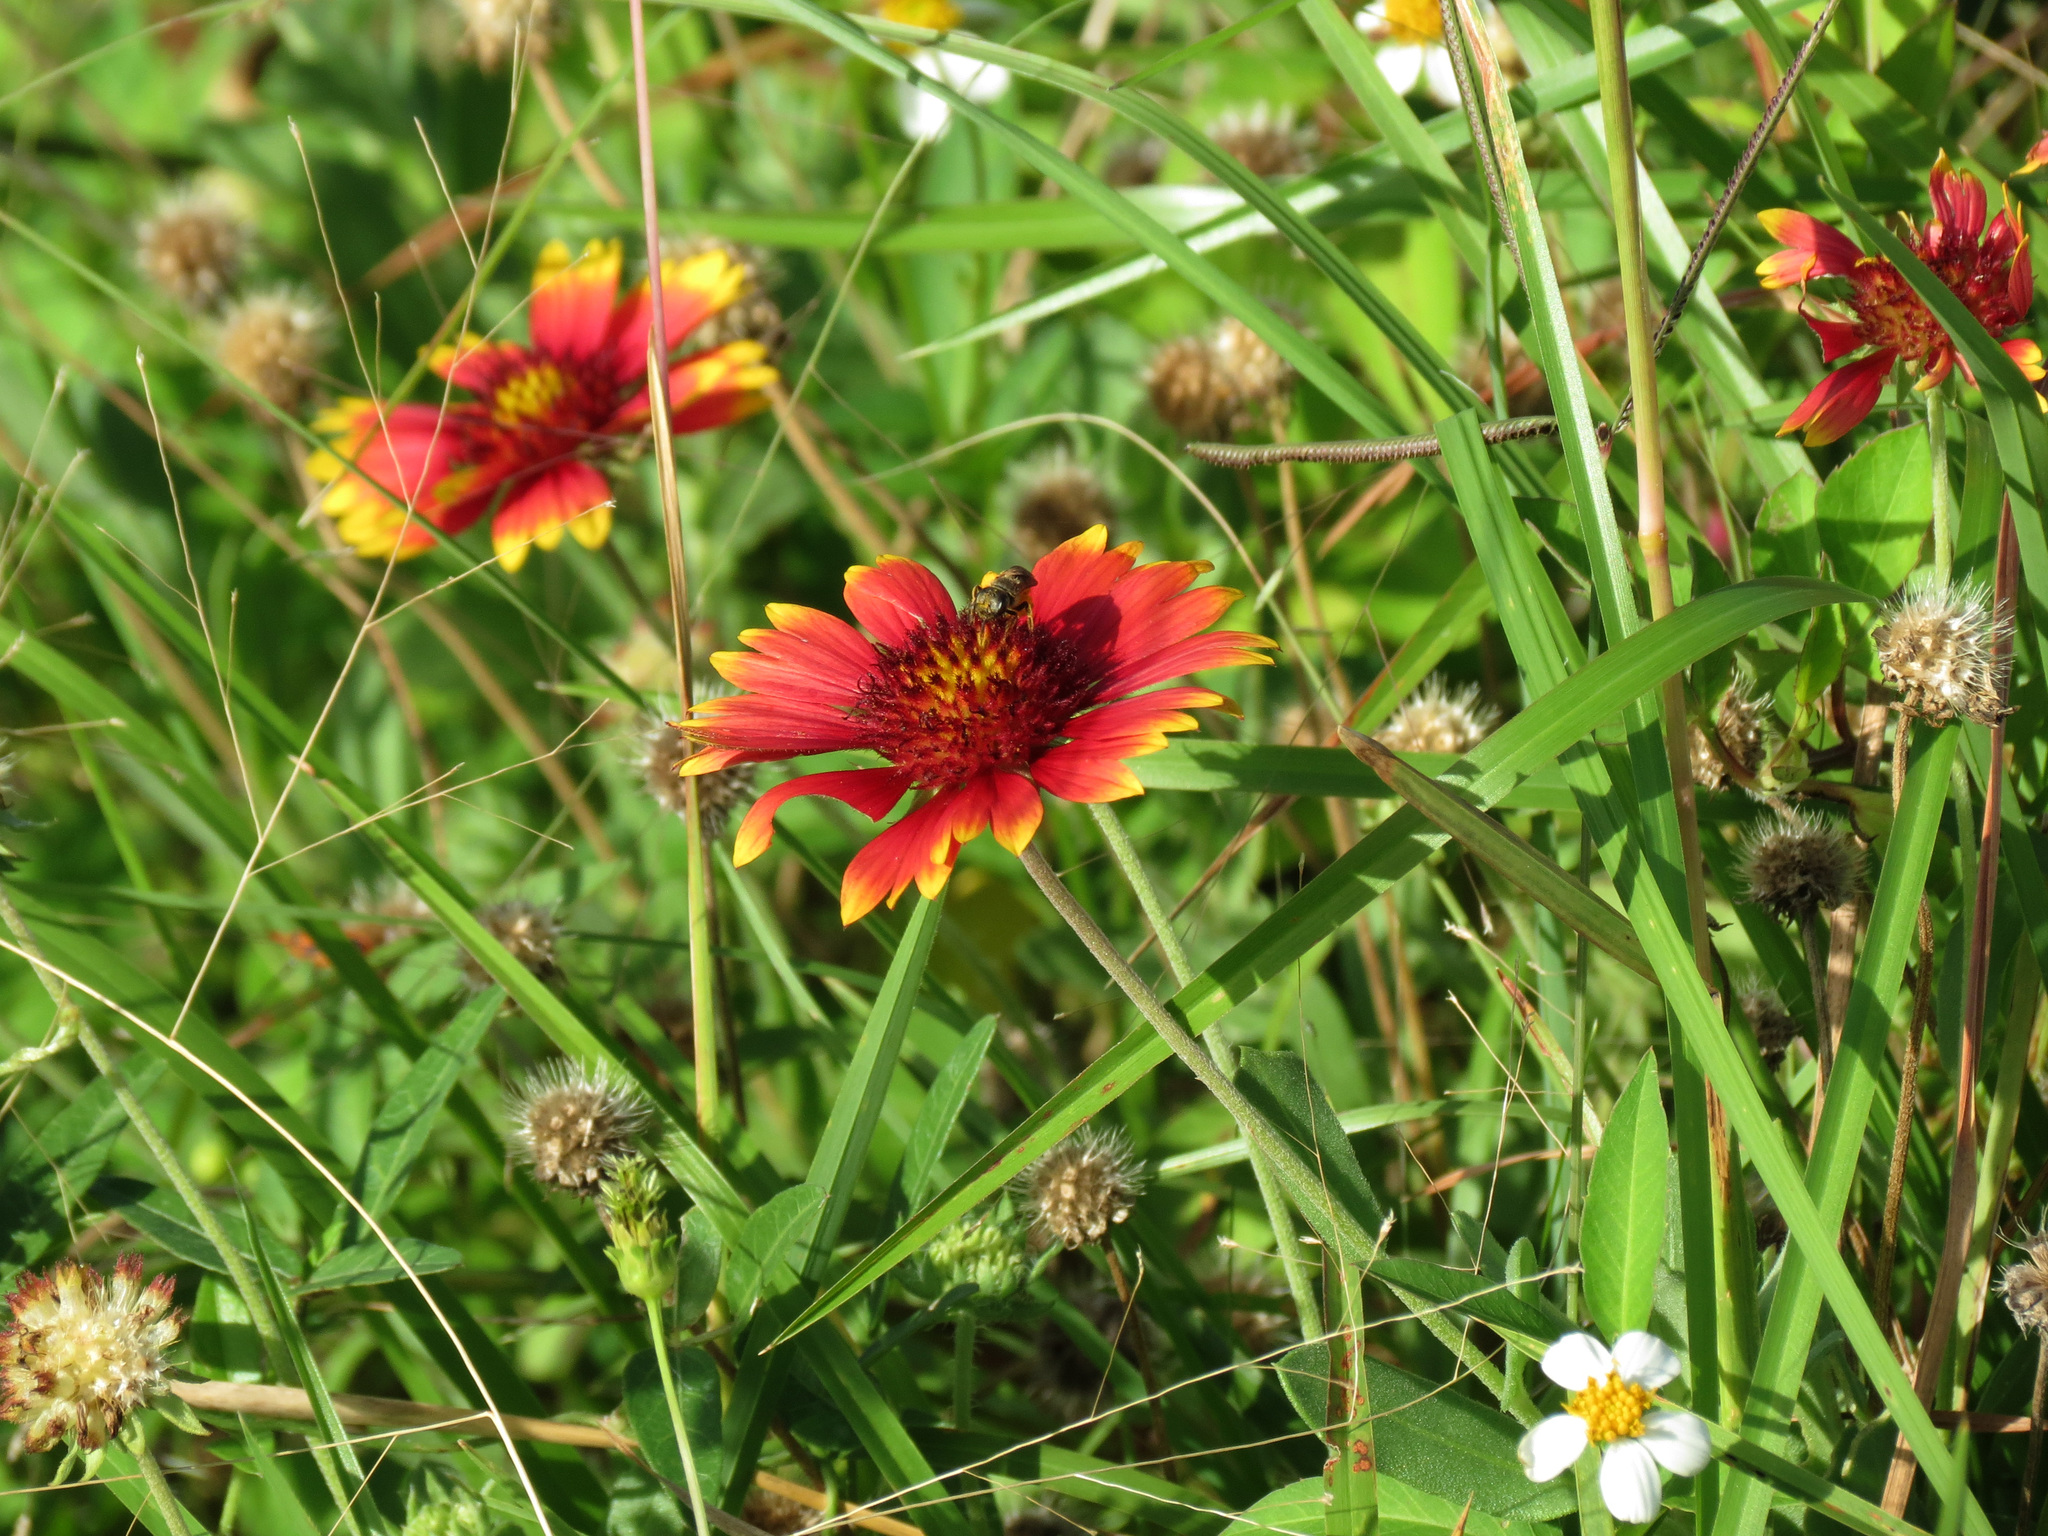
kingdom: Plantae
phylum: Tracheophyta
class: Magnoliopsida
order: Asterales
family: Asteraceae
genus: Gaillardia
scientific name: Gaillardia pulchella
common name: Firewheel
